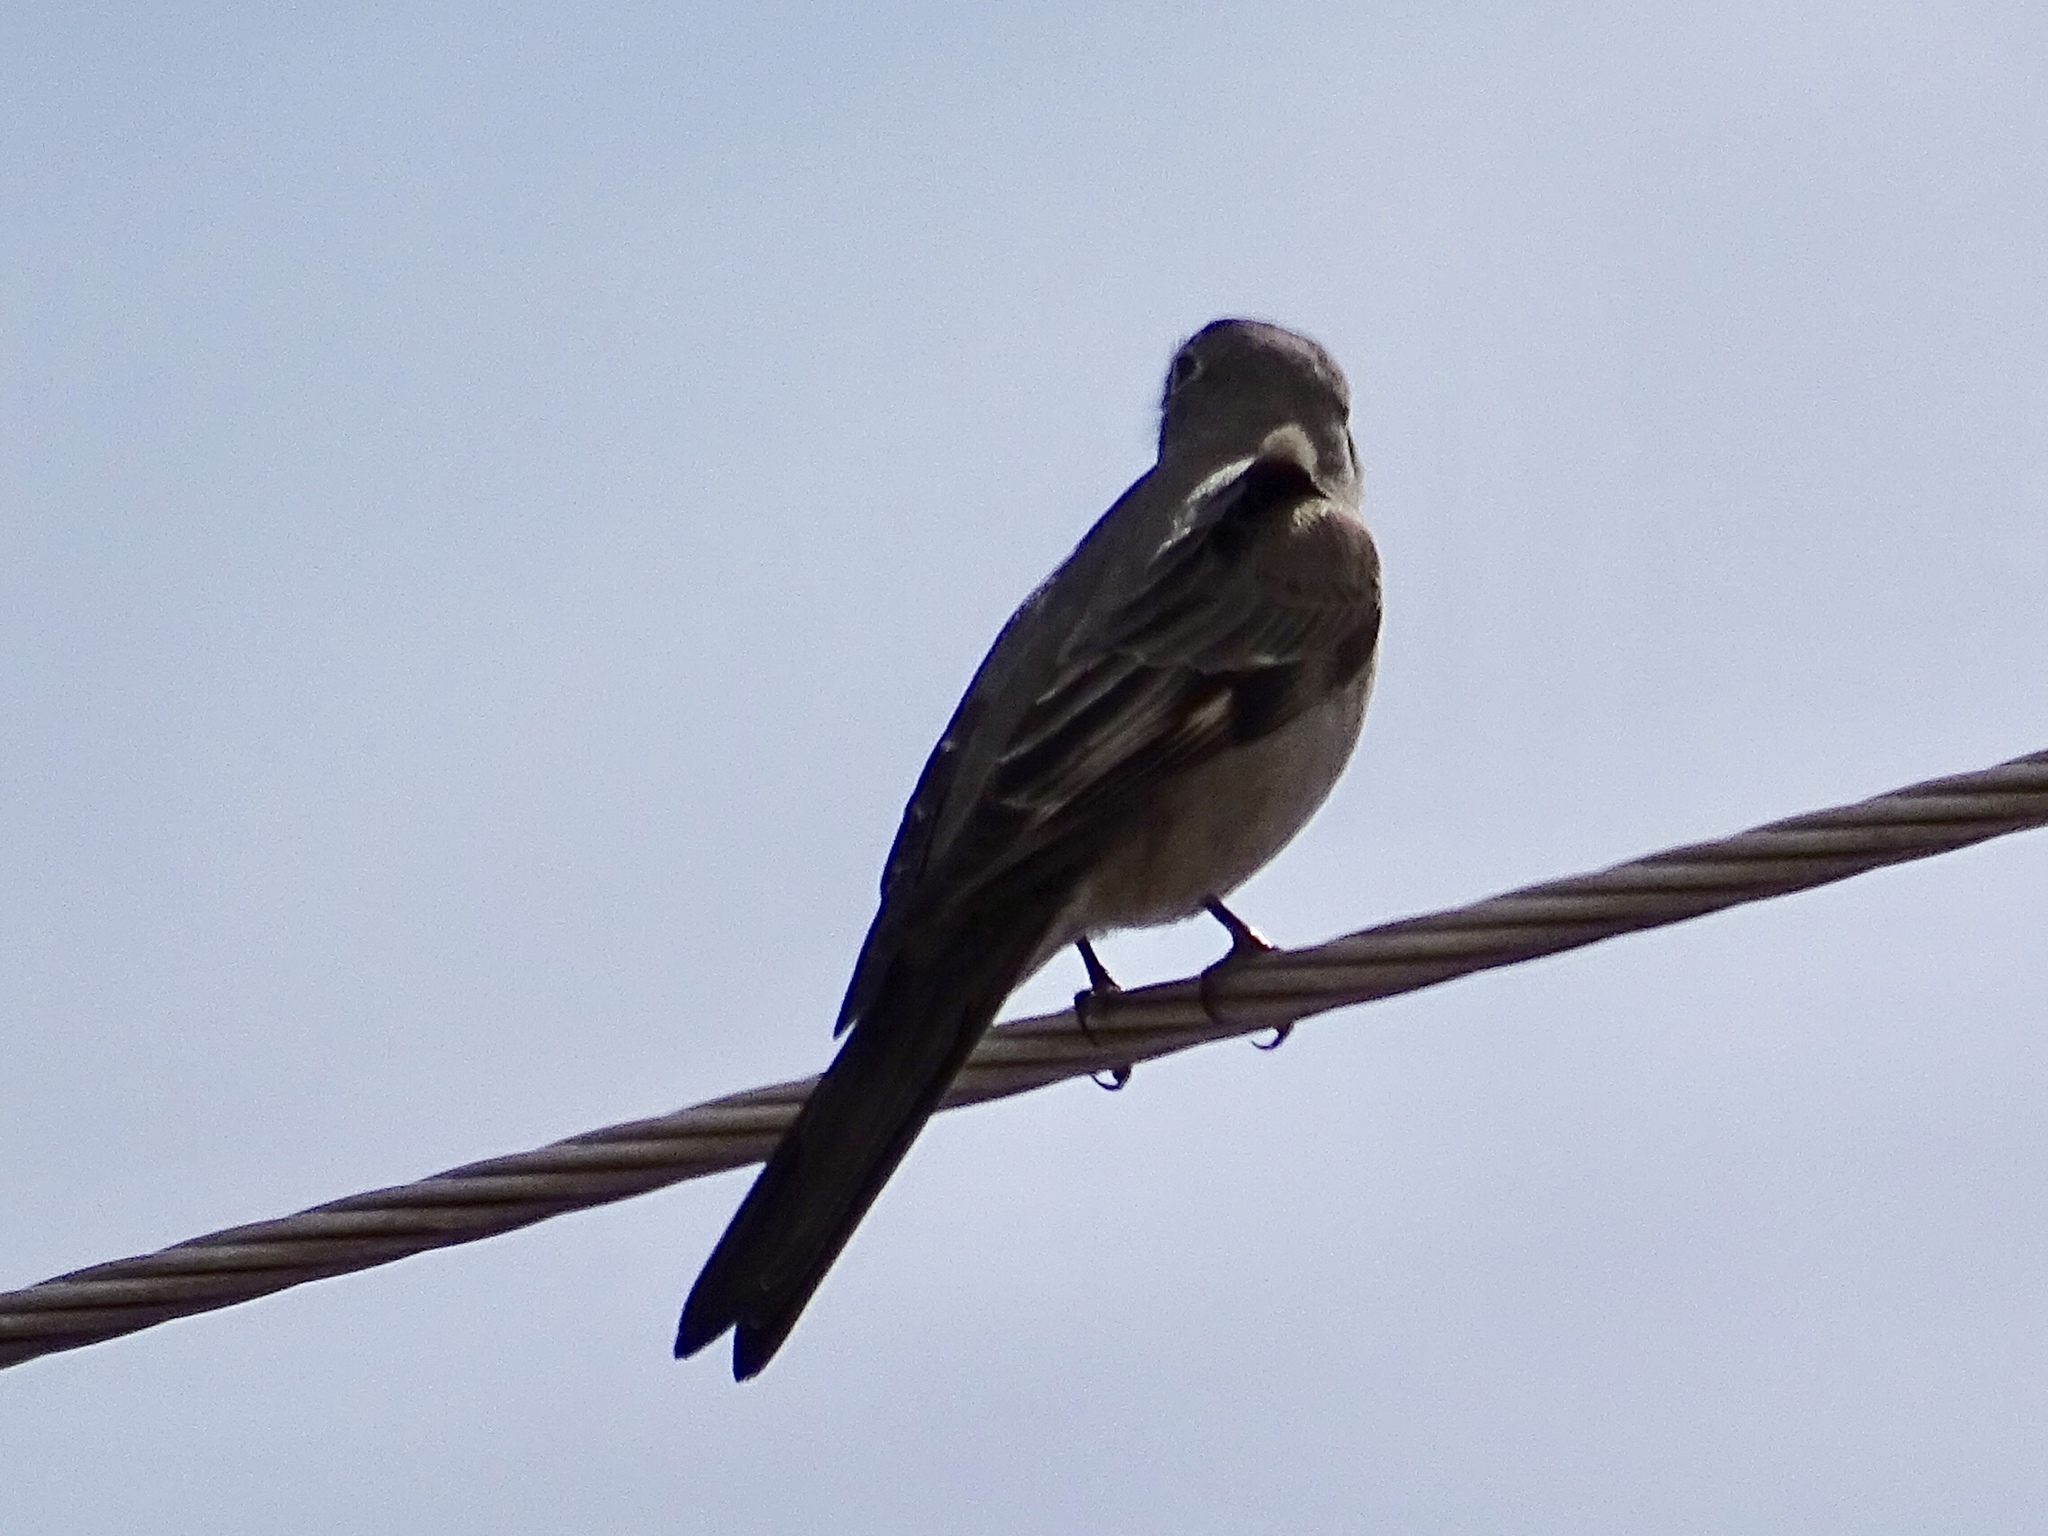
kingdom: Animalia
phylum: Chordata
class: Aves
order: Passeriformes
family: Turdidae
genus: Myadestes
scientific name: Myadestes townsendi
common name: Townsend's solitaire
